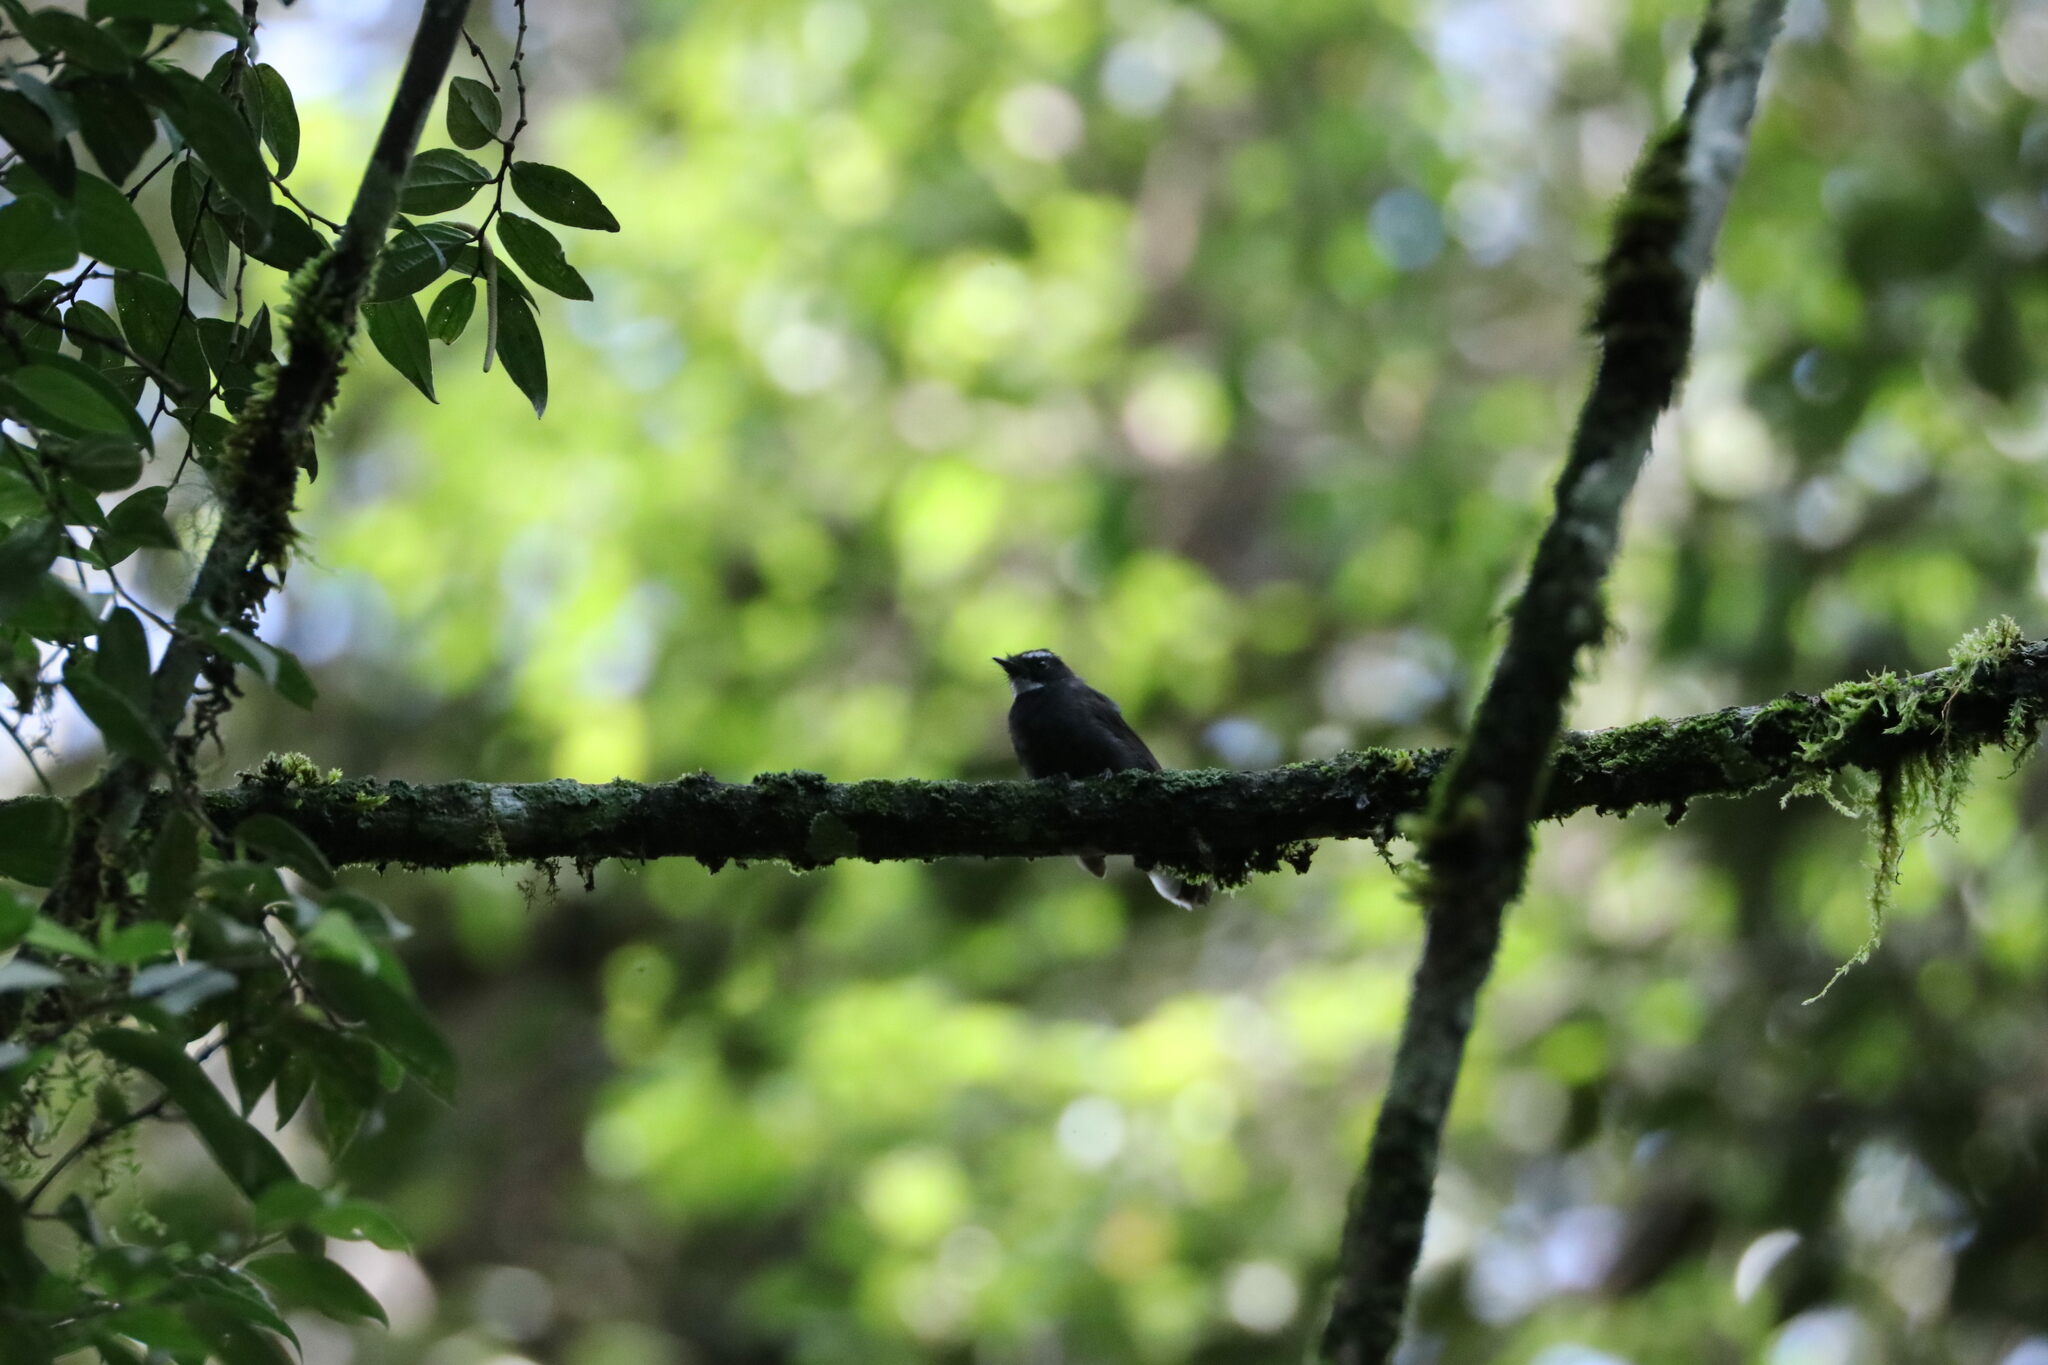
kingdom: Animalia
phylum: Chordata
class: Aves
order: Passeriformes
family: Rhipiduridae
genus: Rhipidura
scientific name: Rhipidura albicollis
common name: White-throated fantail
